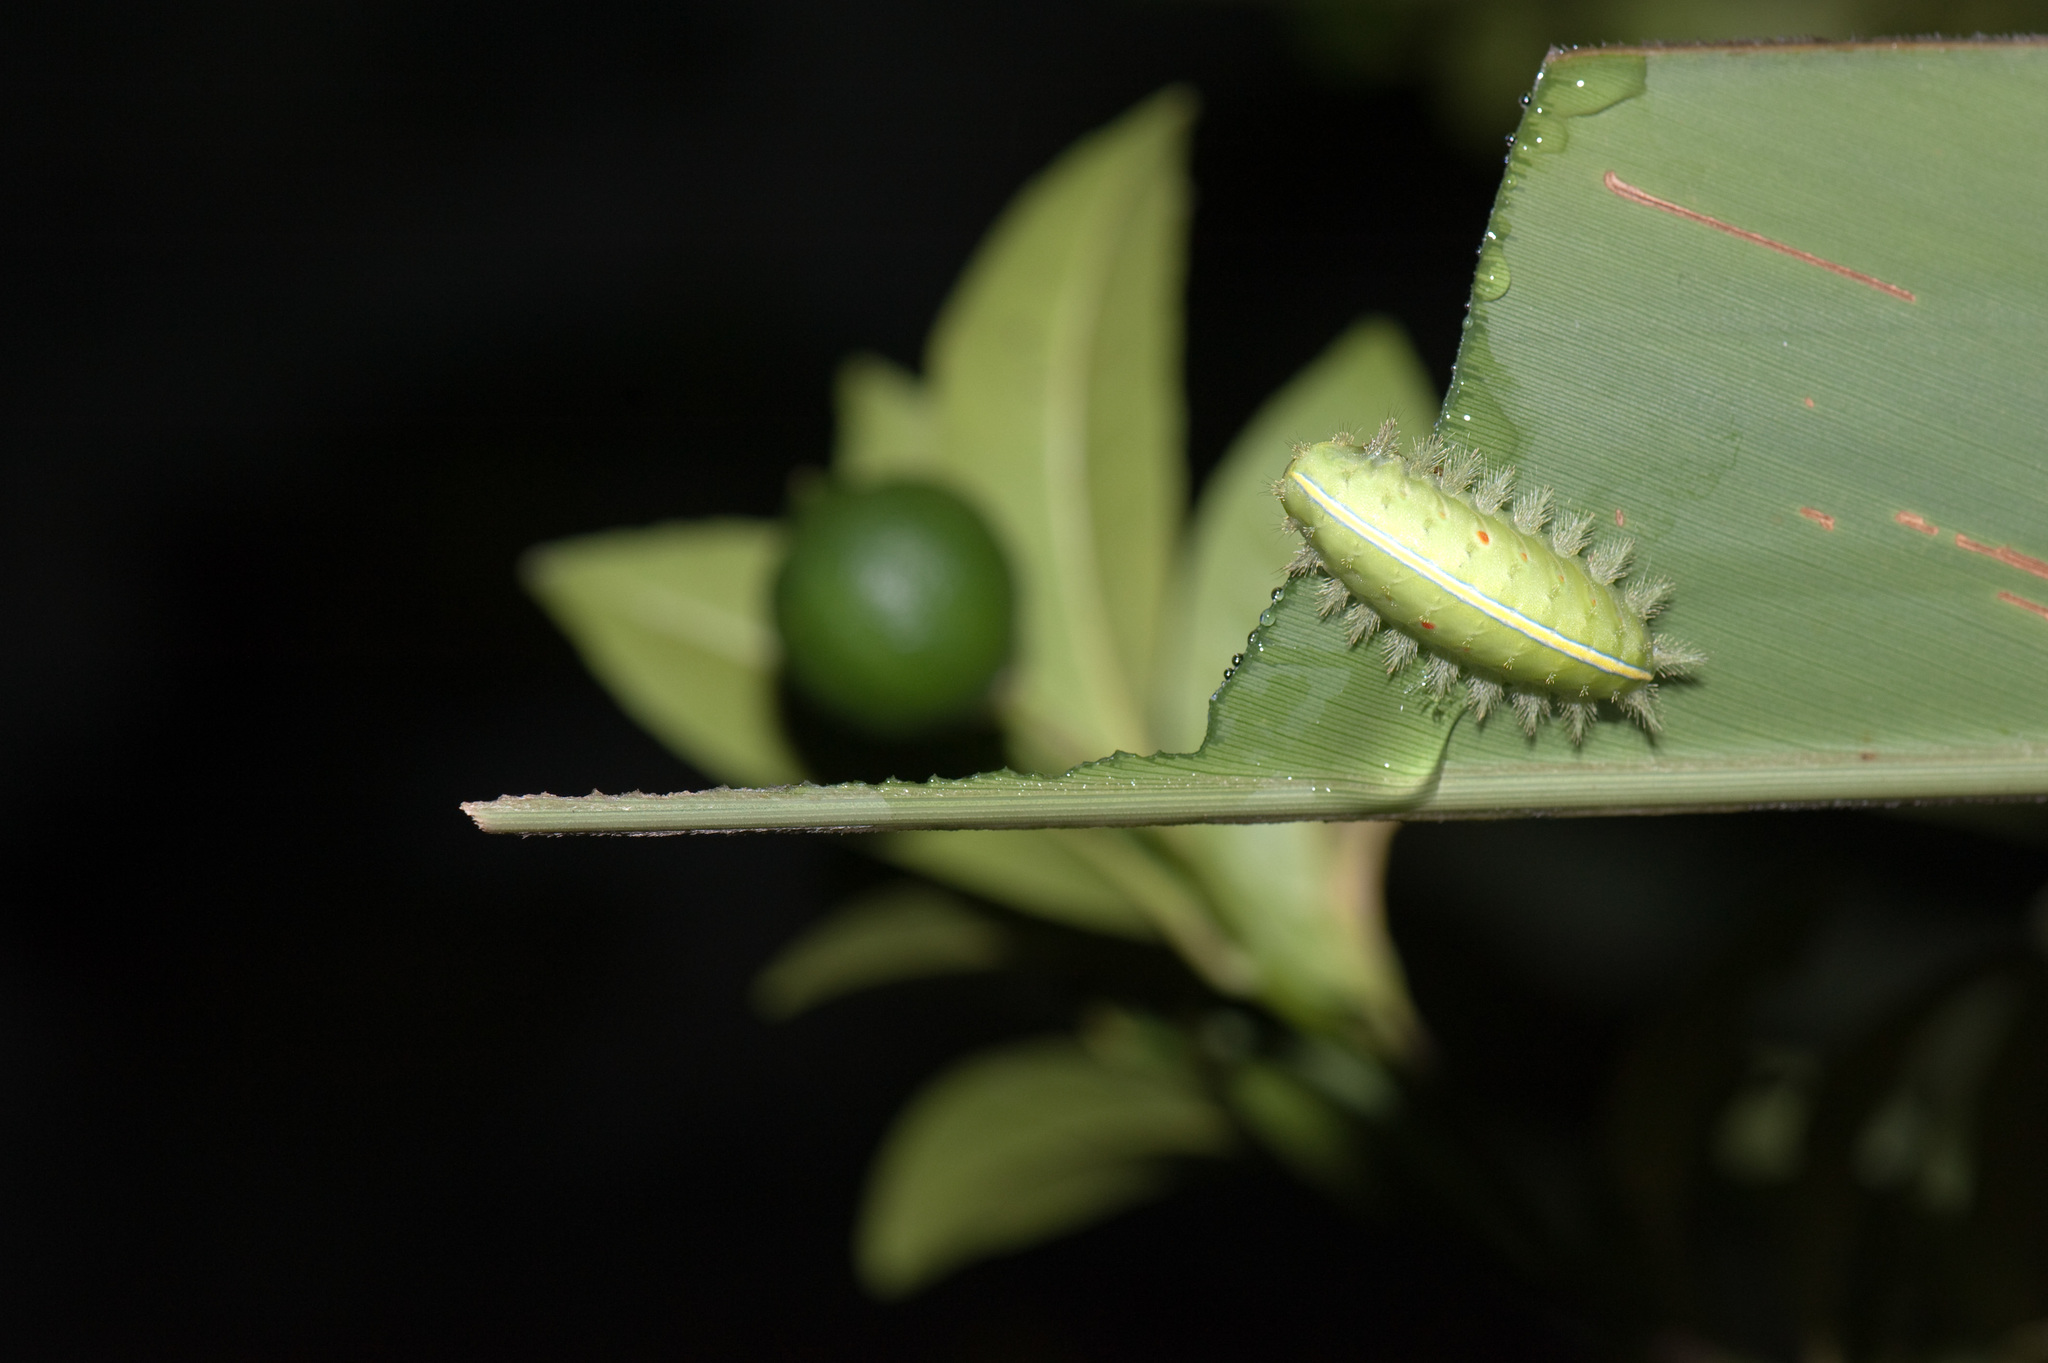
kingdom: Animalia
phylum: Arthropoda
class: Insecta
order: Lepidoptera
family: Limacodidae
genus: Thosea
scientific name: Thosea sinensis
